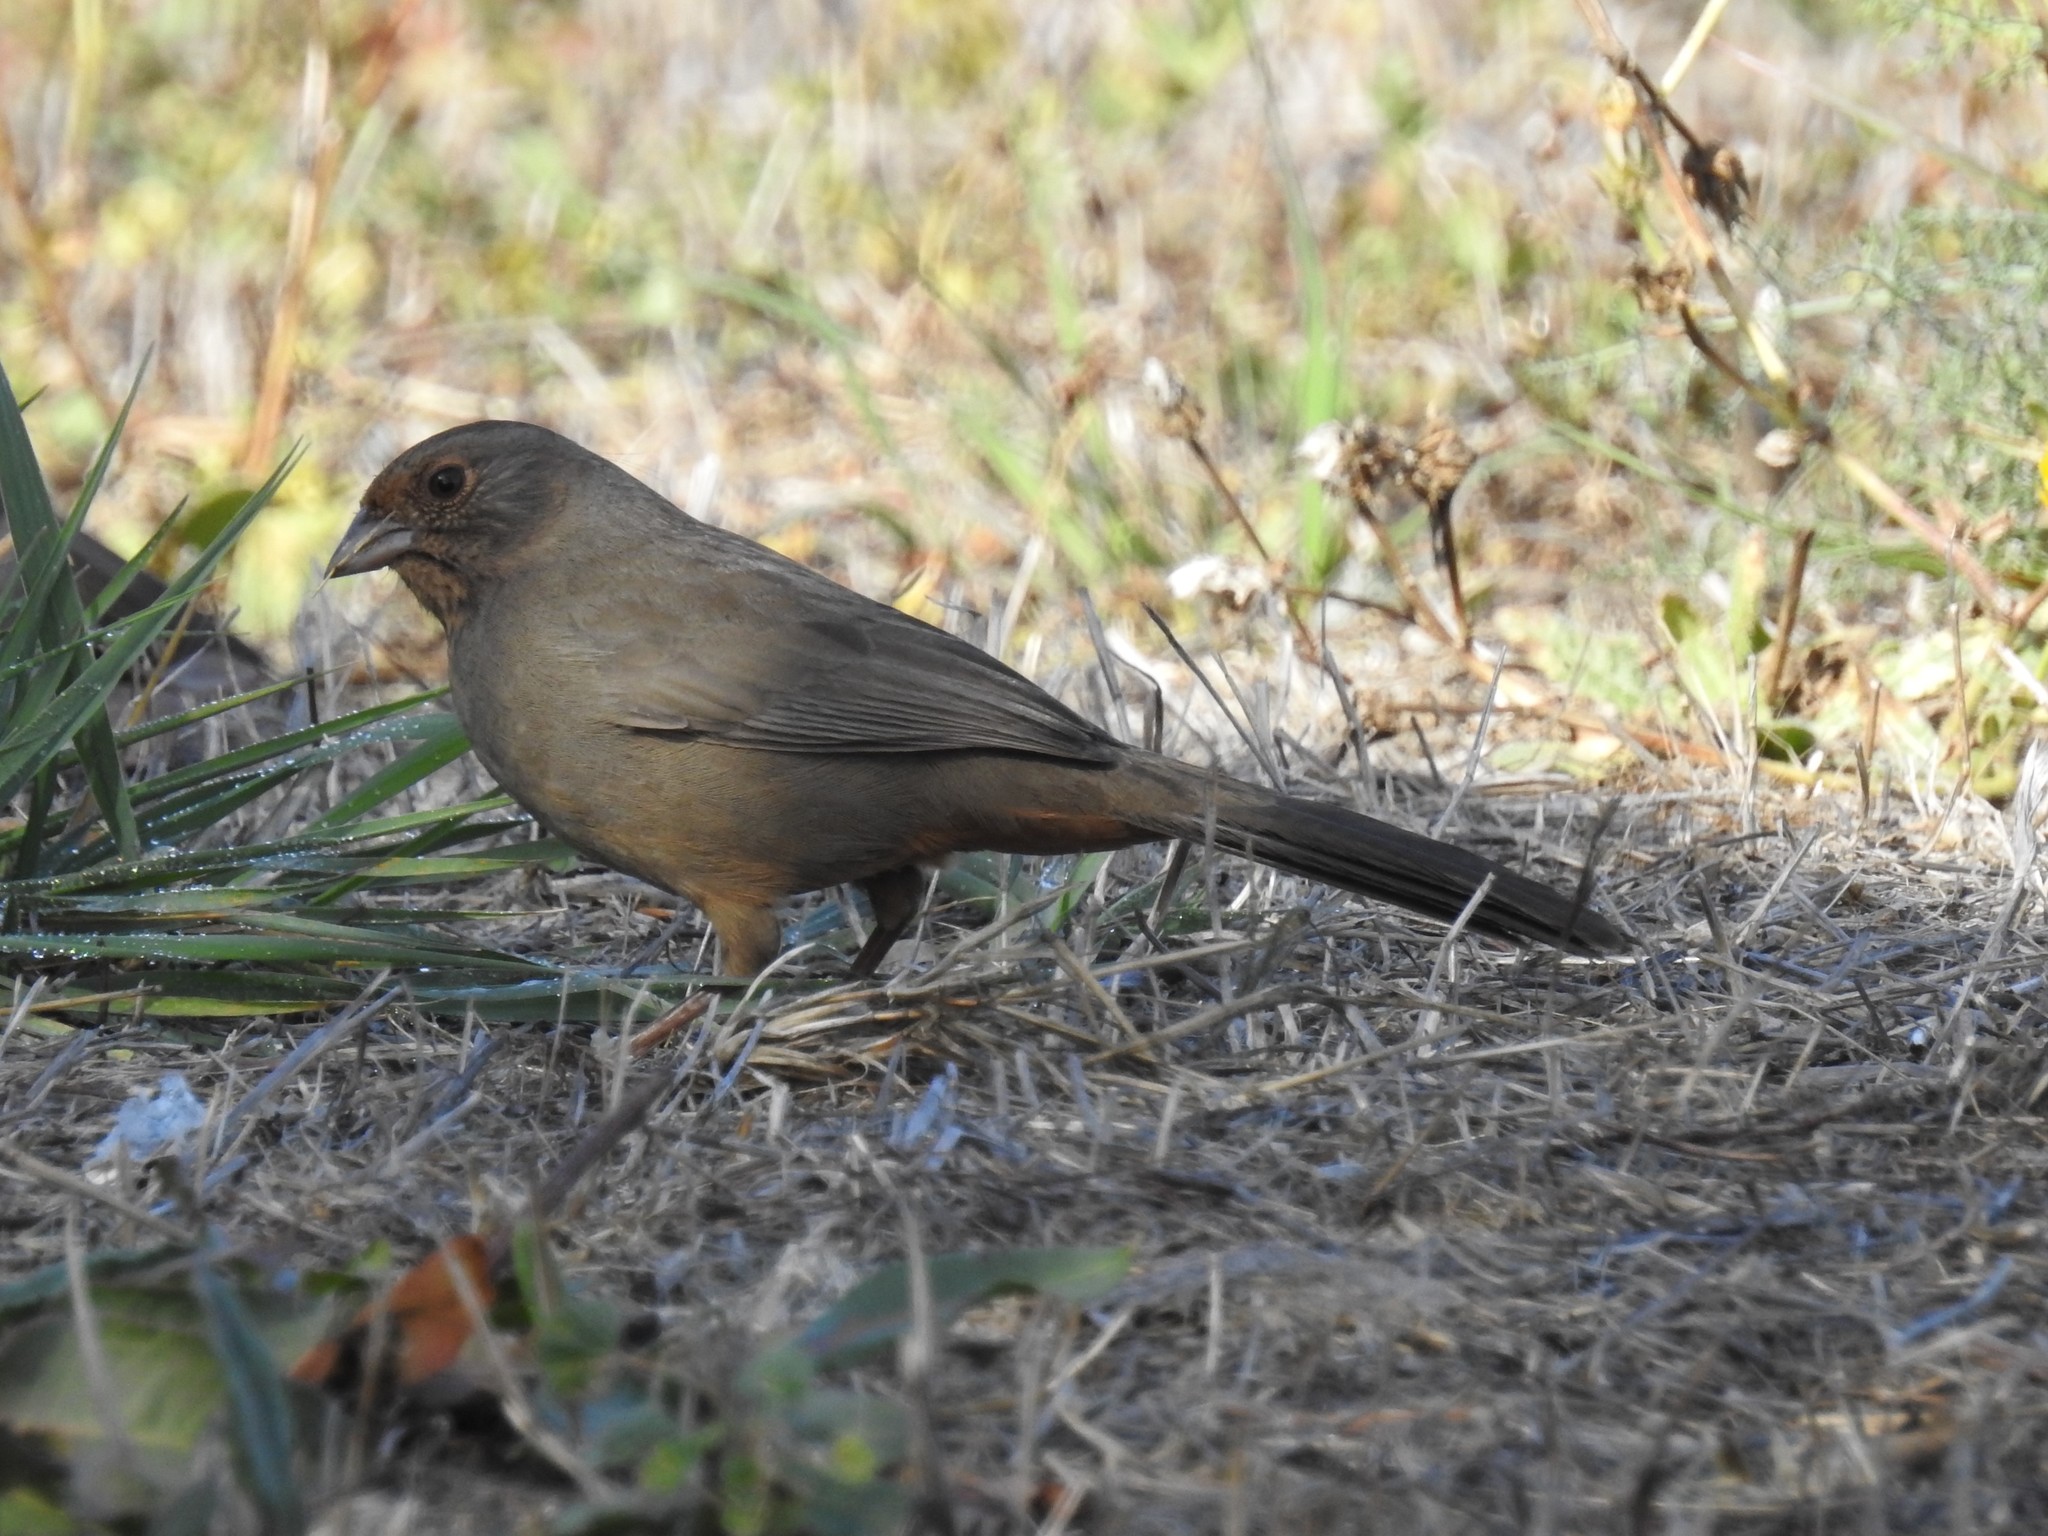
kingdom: Animalia
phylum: Chordata
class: Aves
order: Passeriformes
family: Passerellidae
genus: Melozone
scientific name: Melozone crissalis
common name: California towhee
